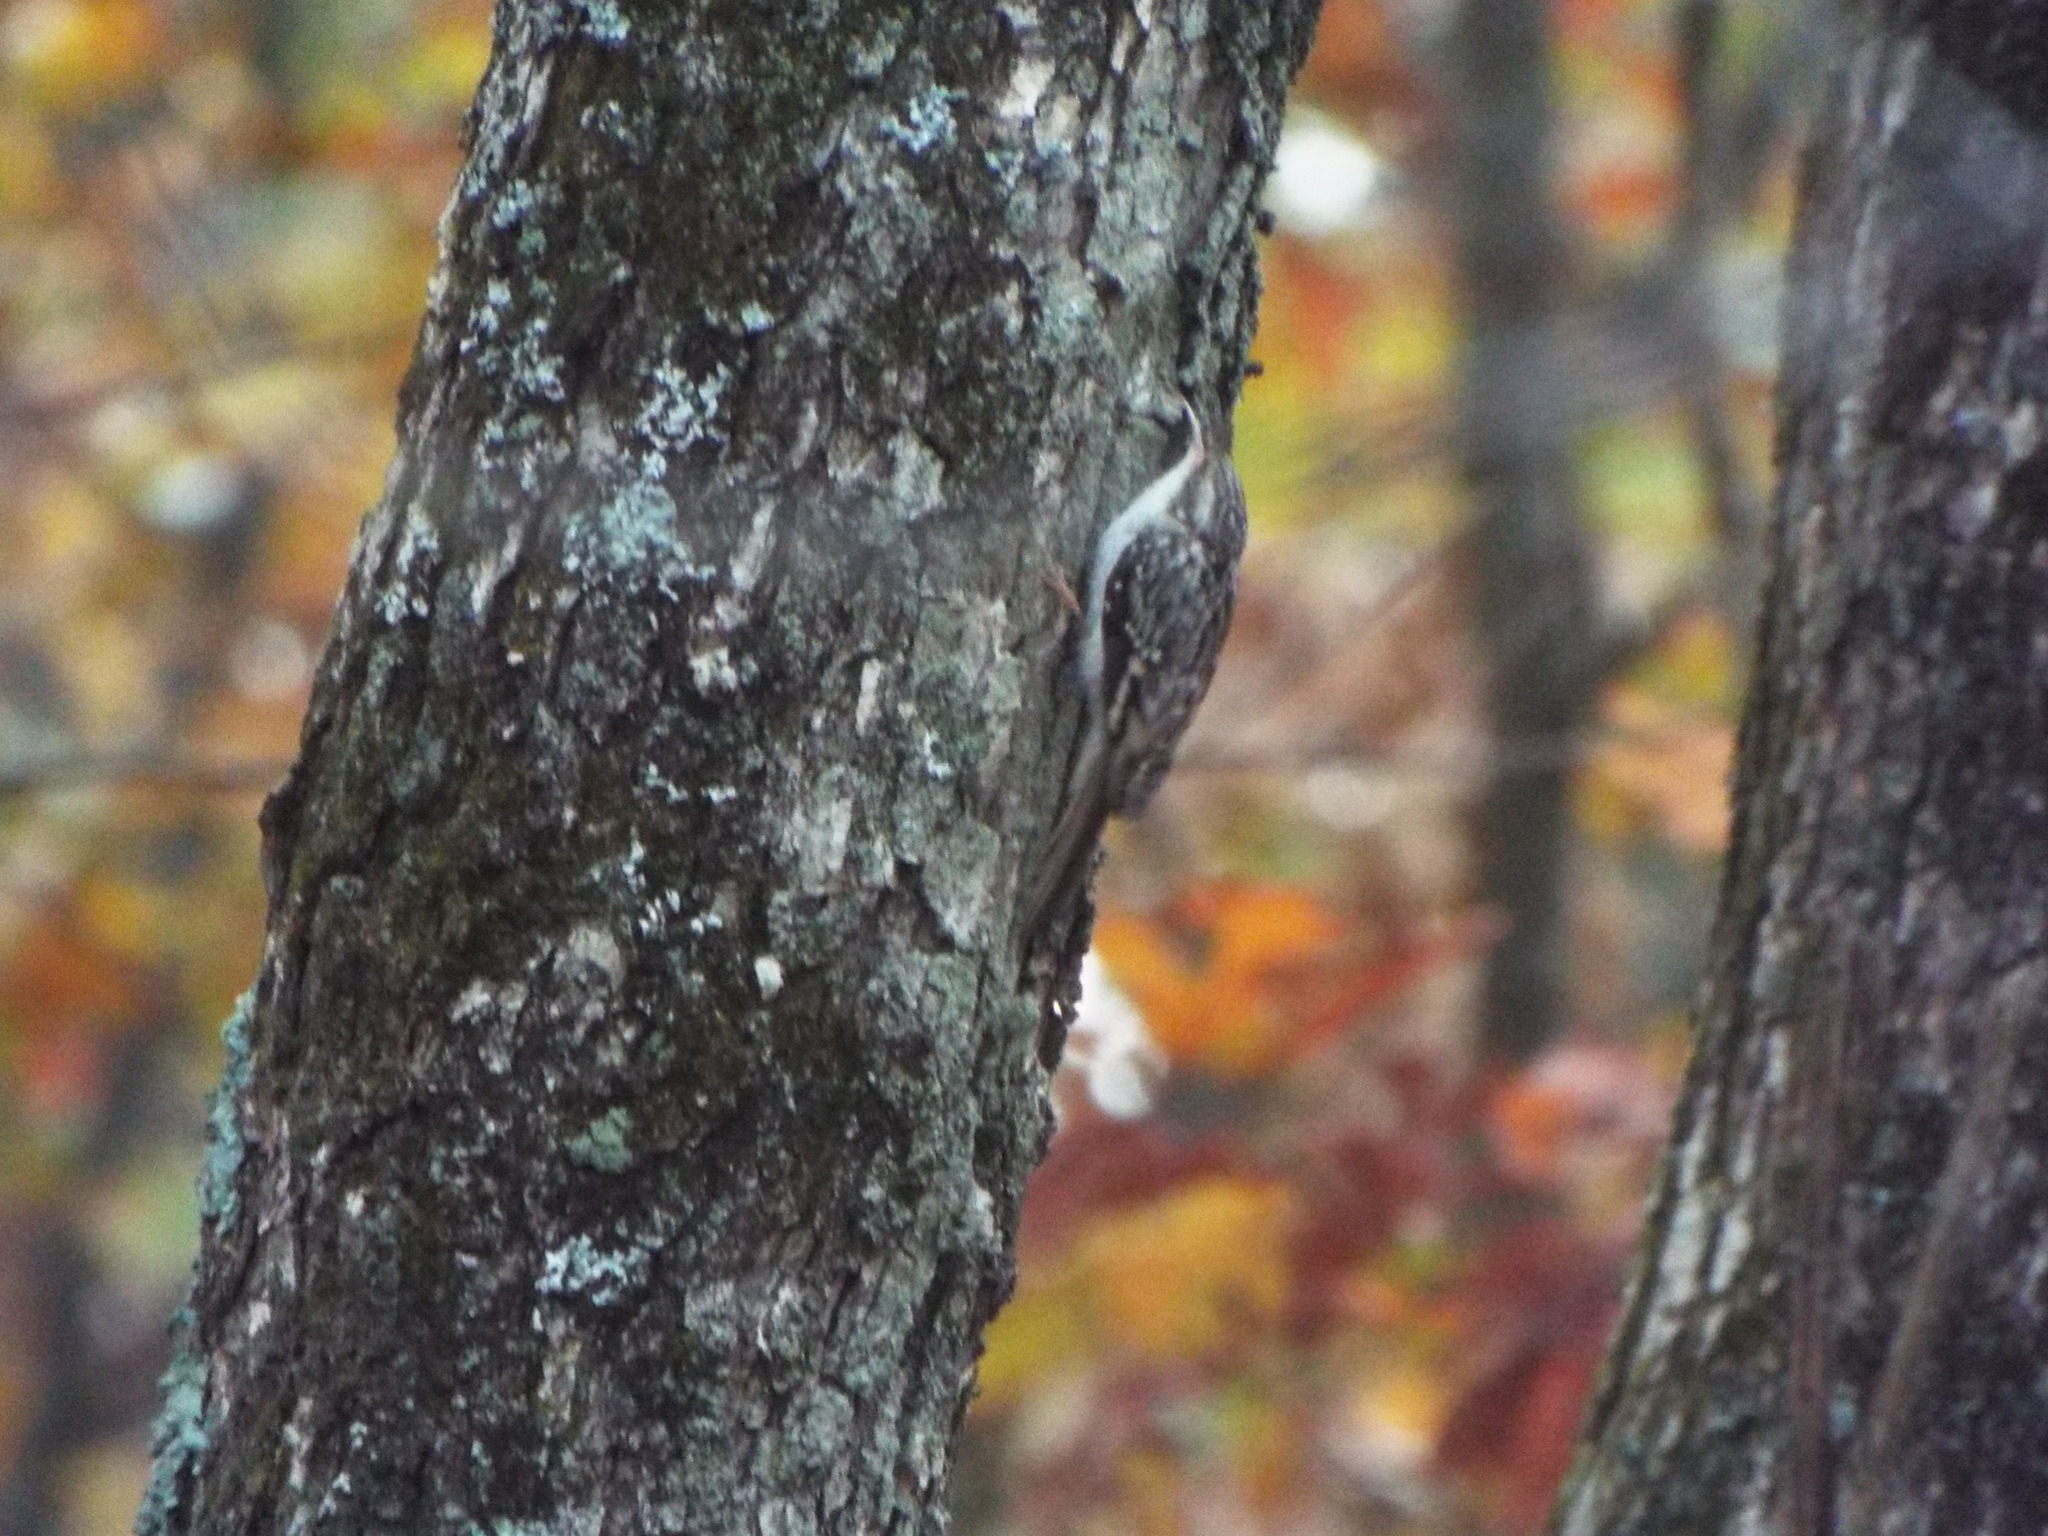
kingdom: Animalia
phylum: Chordata
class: Aves
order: Passeriformes
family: Certhiidae
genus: Certhia
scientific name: Certhia americana
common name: Brown creeper
